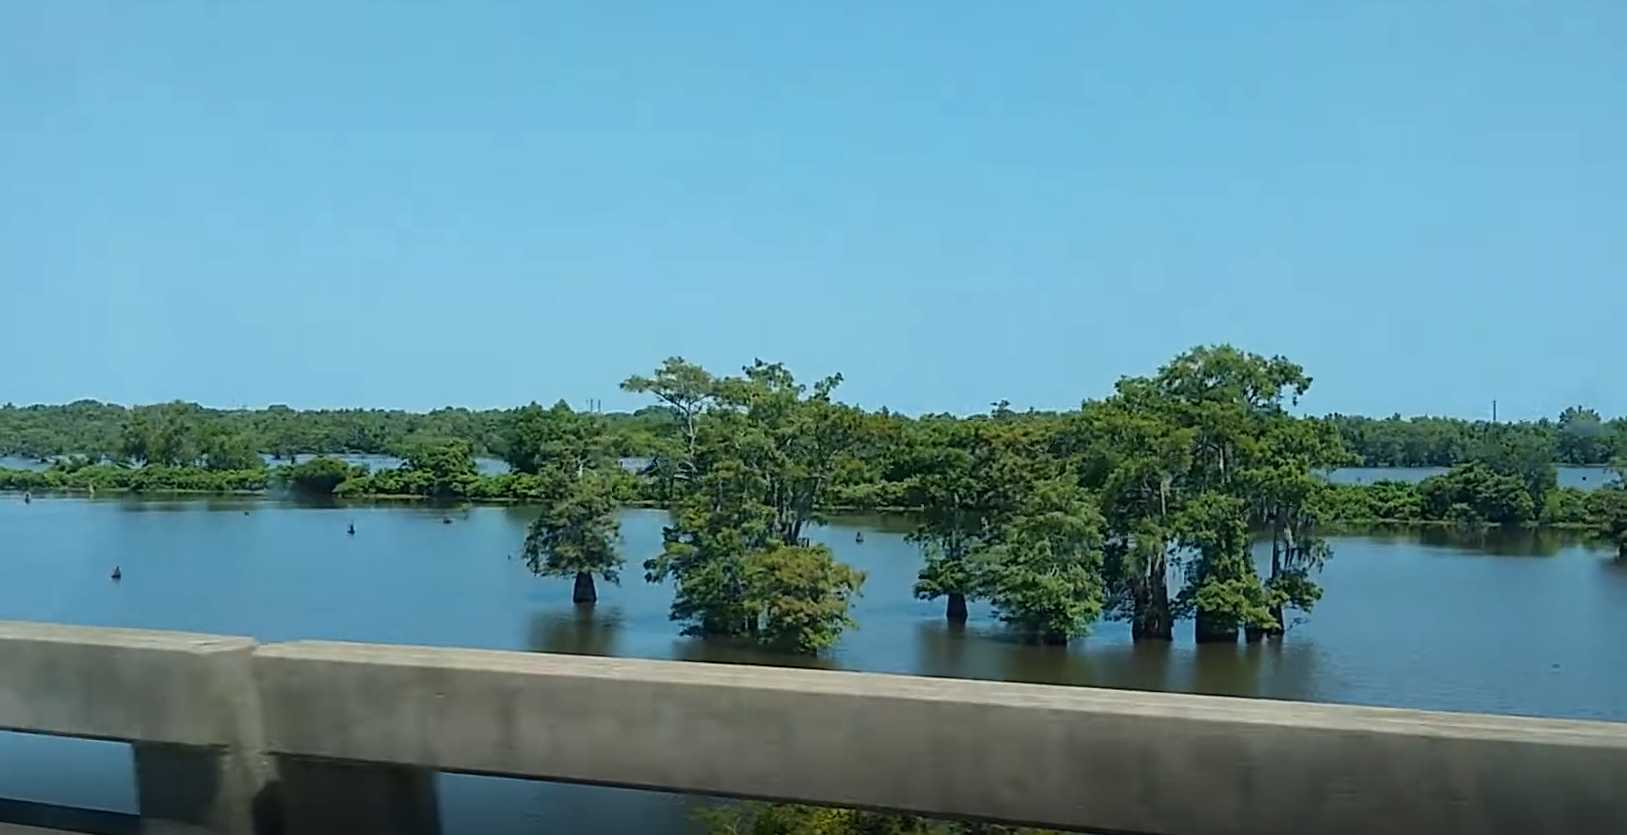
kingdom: Plantae
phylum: Tracheophyta
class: Pinopsida
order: Pinales
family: Cupressaceae
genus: Taxodium
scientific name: Taxodium distichum
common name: Bald cypress
